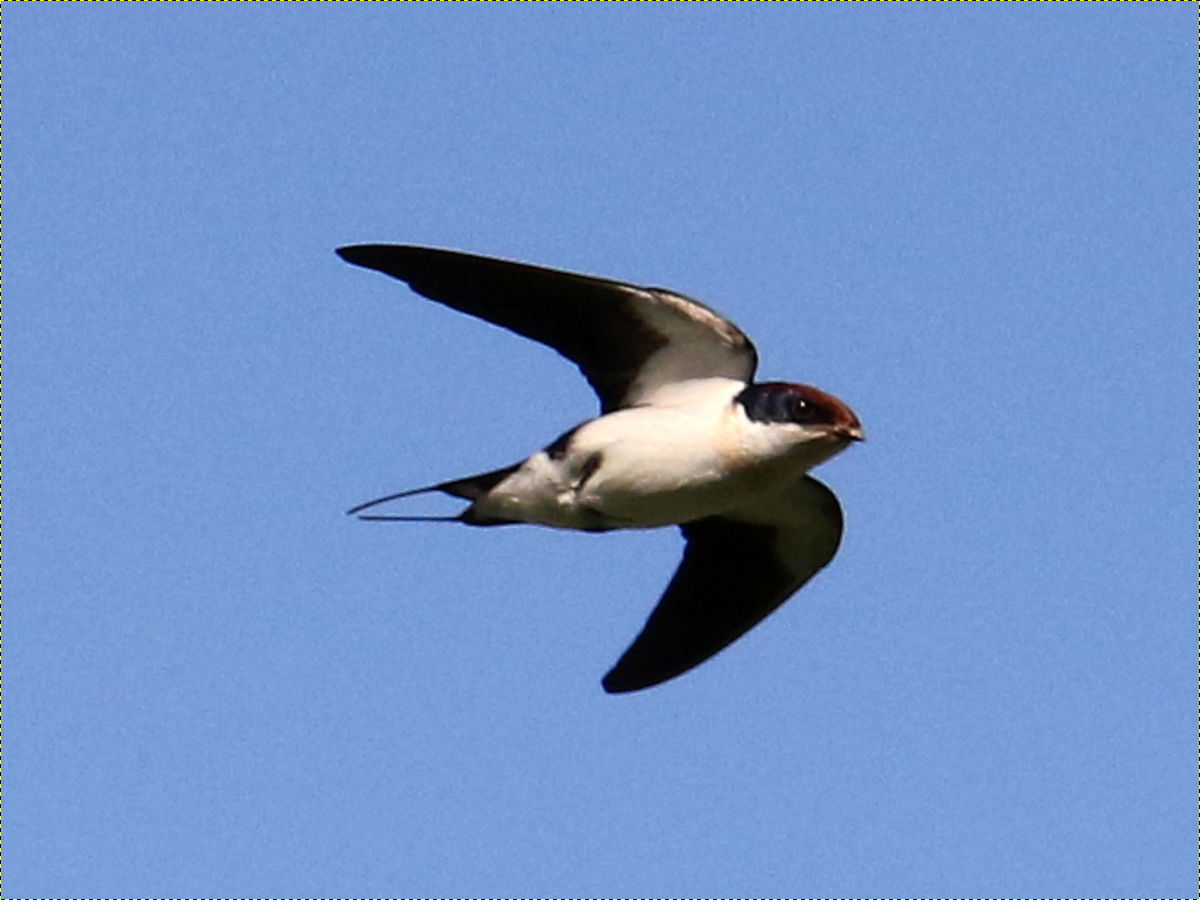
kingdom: Animalia
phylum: Chordata
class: Aves
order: Passeriformes
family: Hirundinidae
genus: Hirundo
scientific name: Hirundo smithii
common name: Wire-tailed swallow
